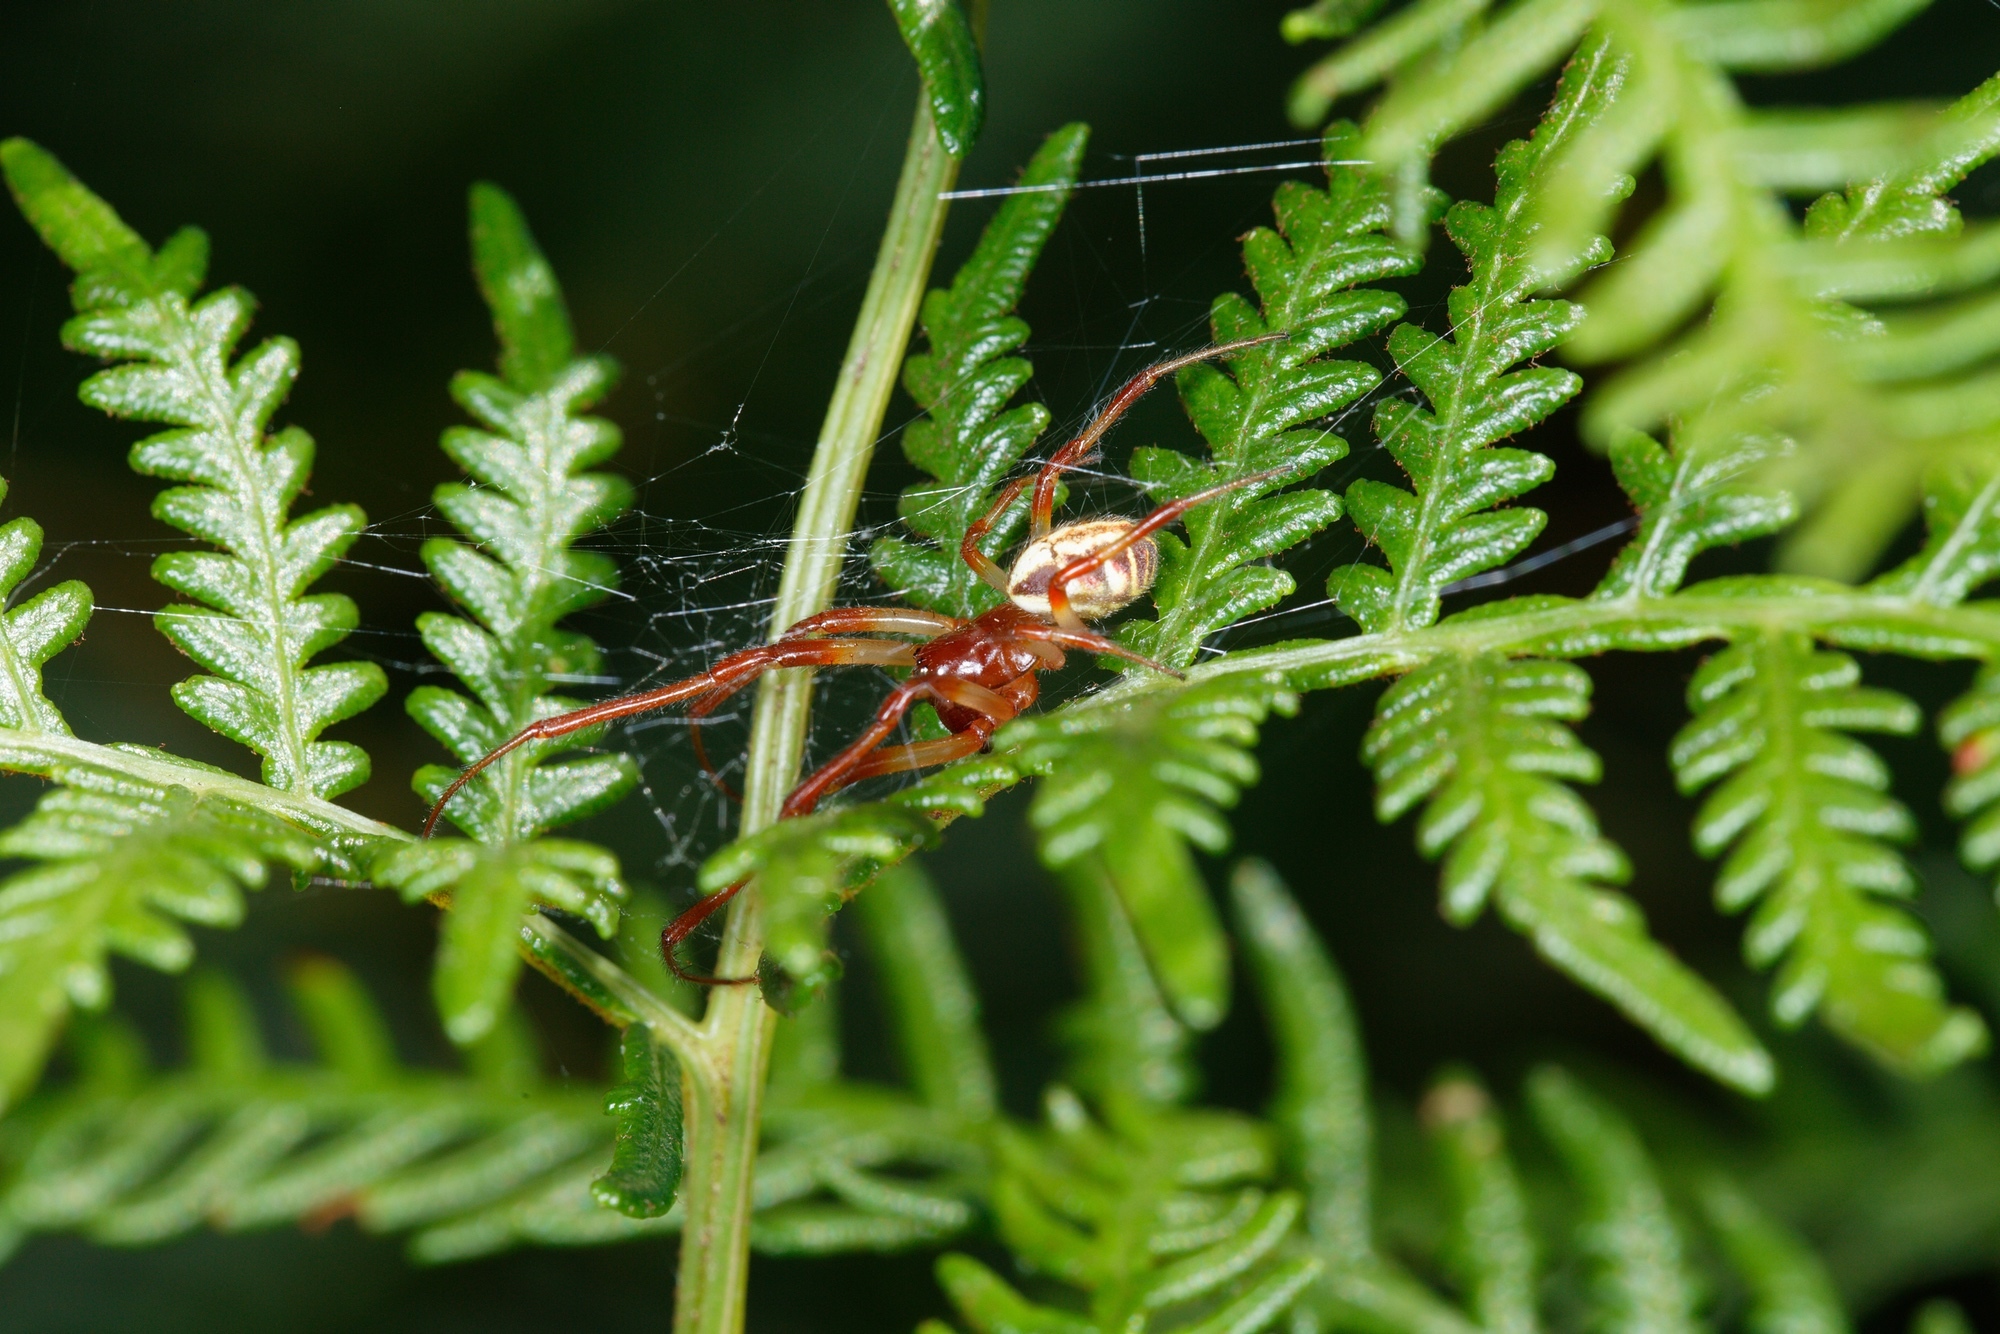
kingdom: Animalia
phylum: Arthropoda
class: Arachnida
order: Araneae
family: Araneidae
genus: Phonognatha
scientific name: Phonognatha graeffei
